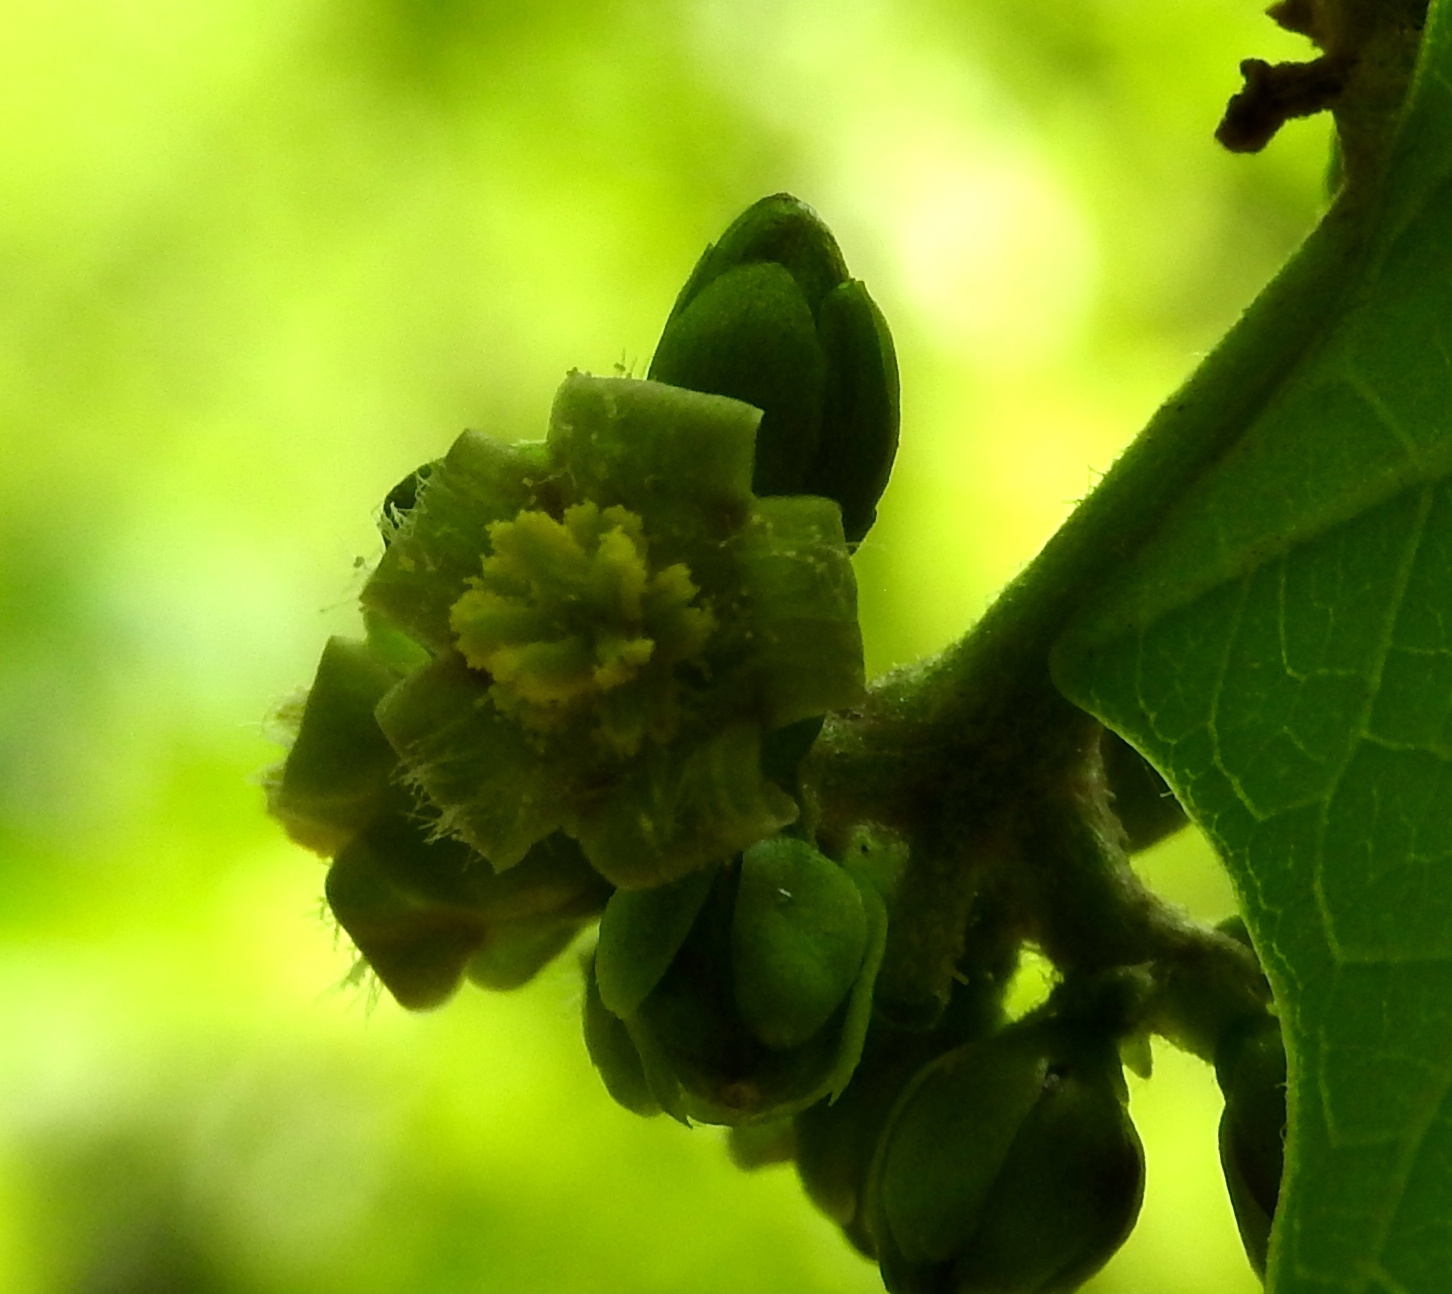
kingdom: Plantae
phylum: Tracheophyta
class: Magnoliopsida
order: Malpighiales
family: Euphorbiaceae
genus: Jatropha
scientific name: Jatropha curcas
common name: Barbados nut
